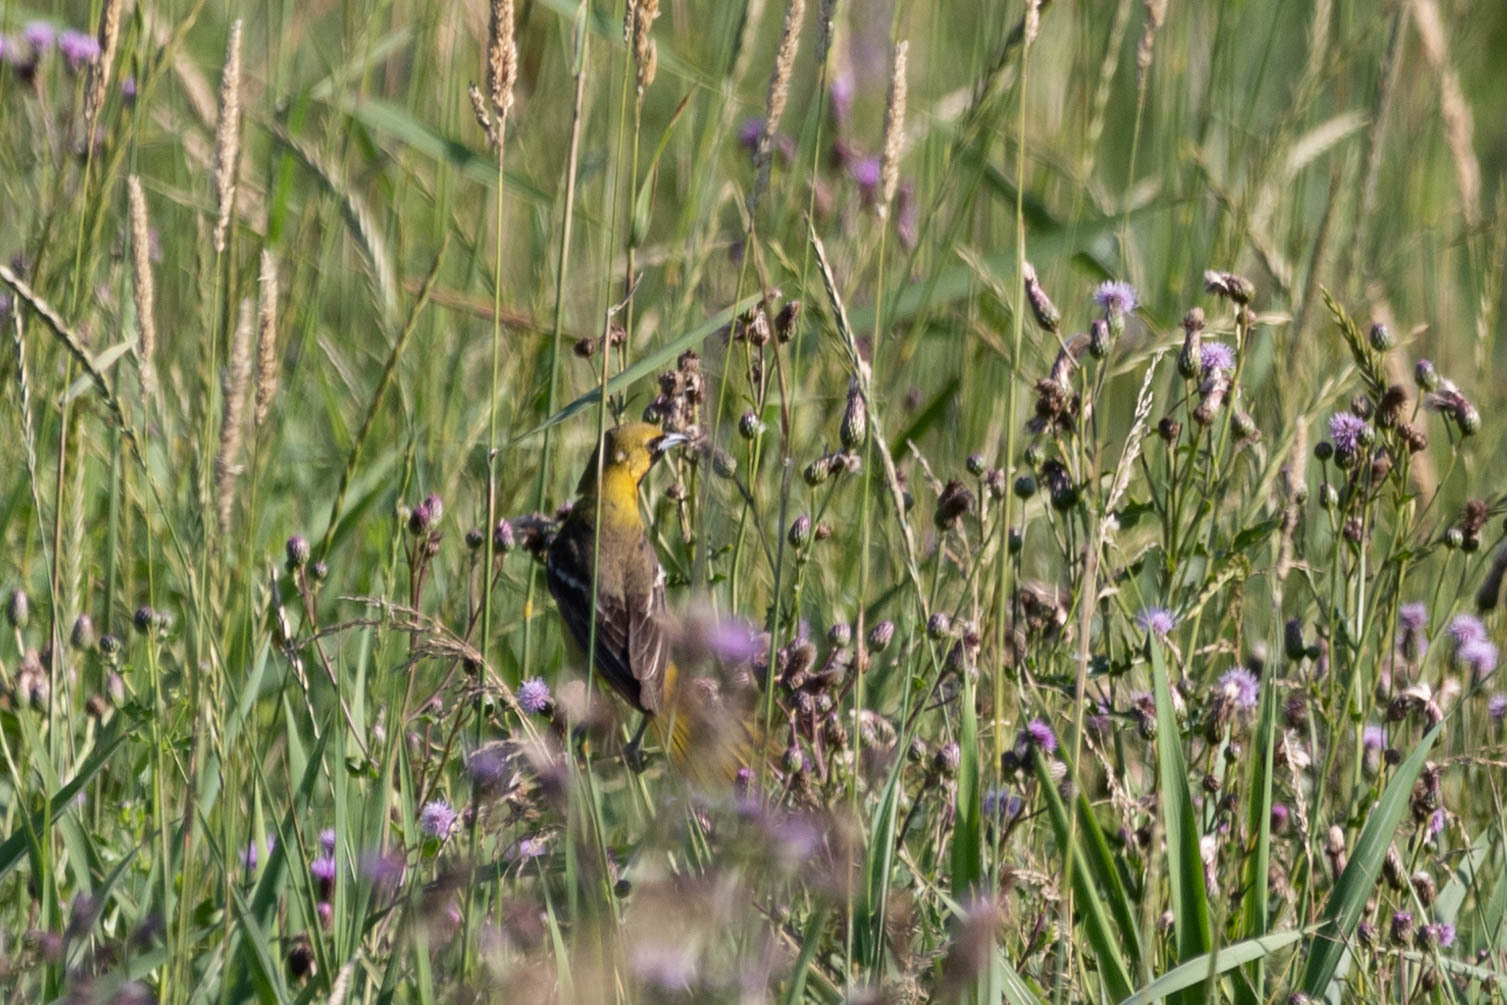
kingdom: Animalia
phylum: Chordata
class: Aves
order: Passeriformes
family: Icteridae
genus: Icterus
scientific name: Icterus spurius
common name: Orchard oriole
